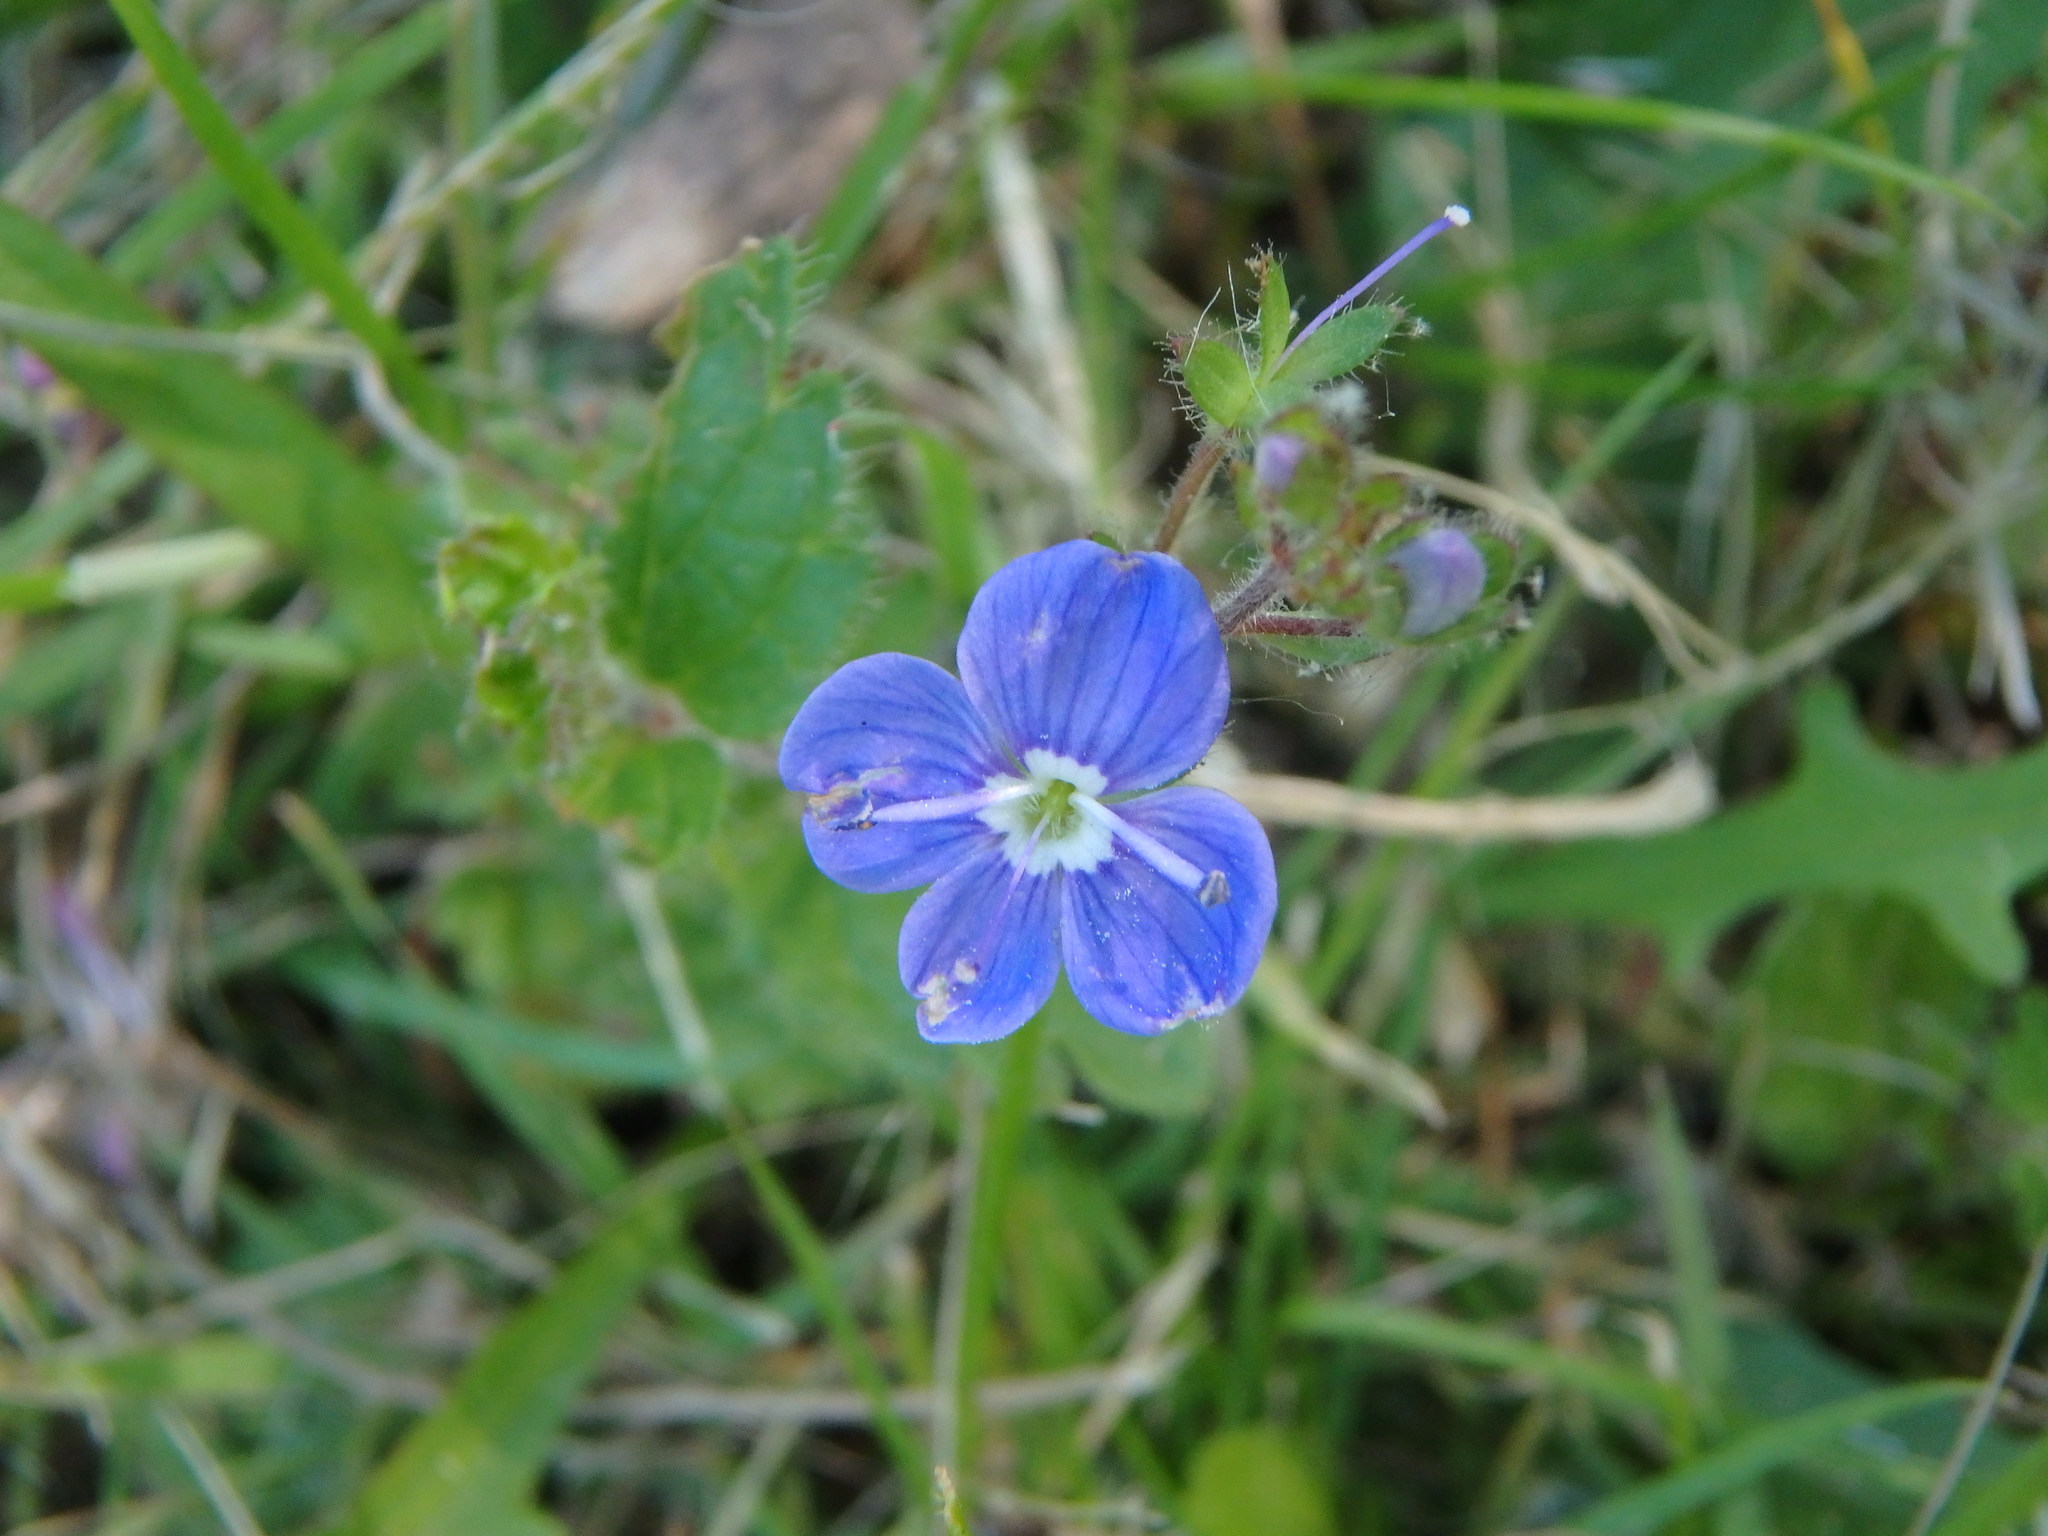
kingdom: Plantae
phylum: Tracheophyta
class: Magnoliopsida
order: Lamiales
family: Plantaginaceae
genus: Veronica
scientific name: Veronica chamaedrys
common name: Germander speedwell
